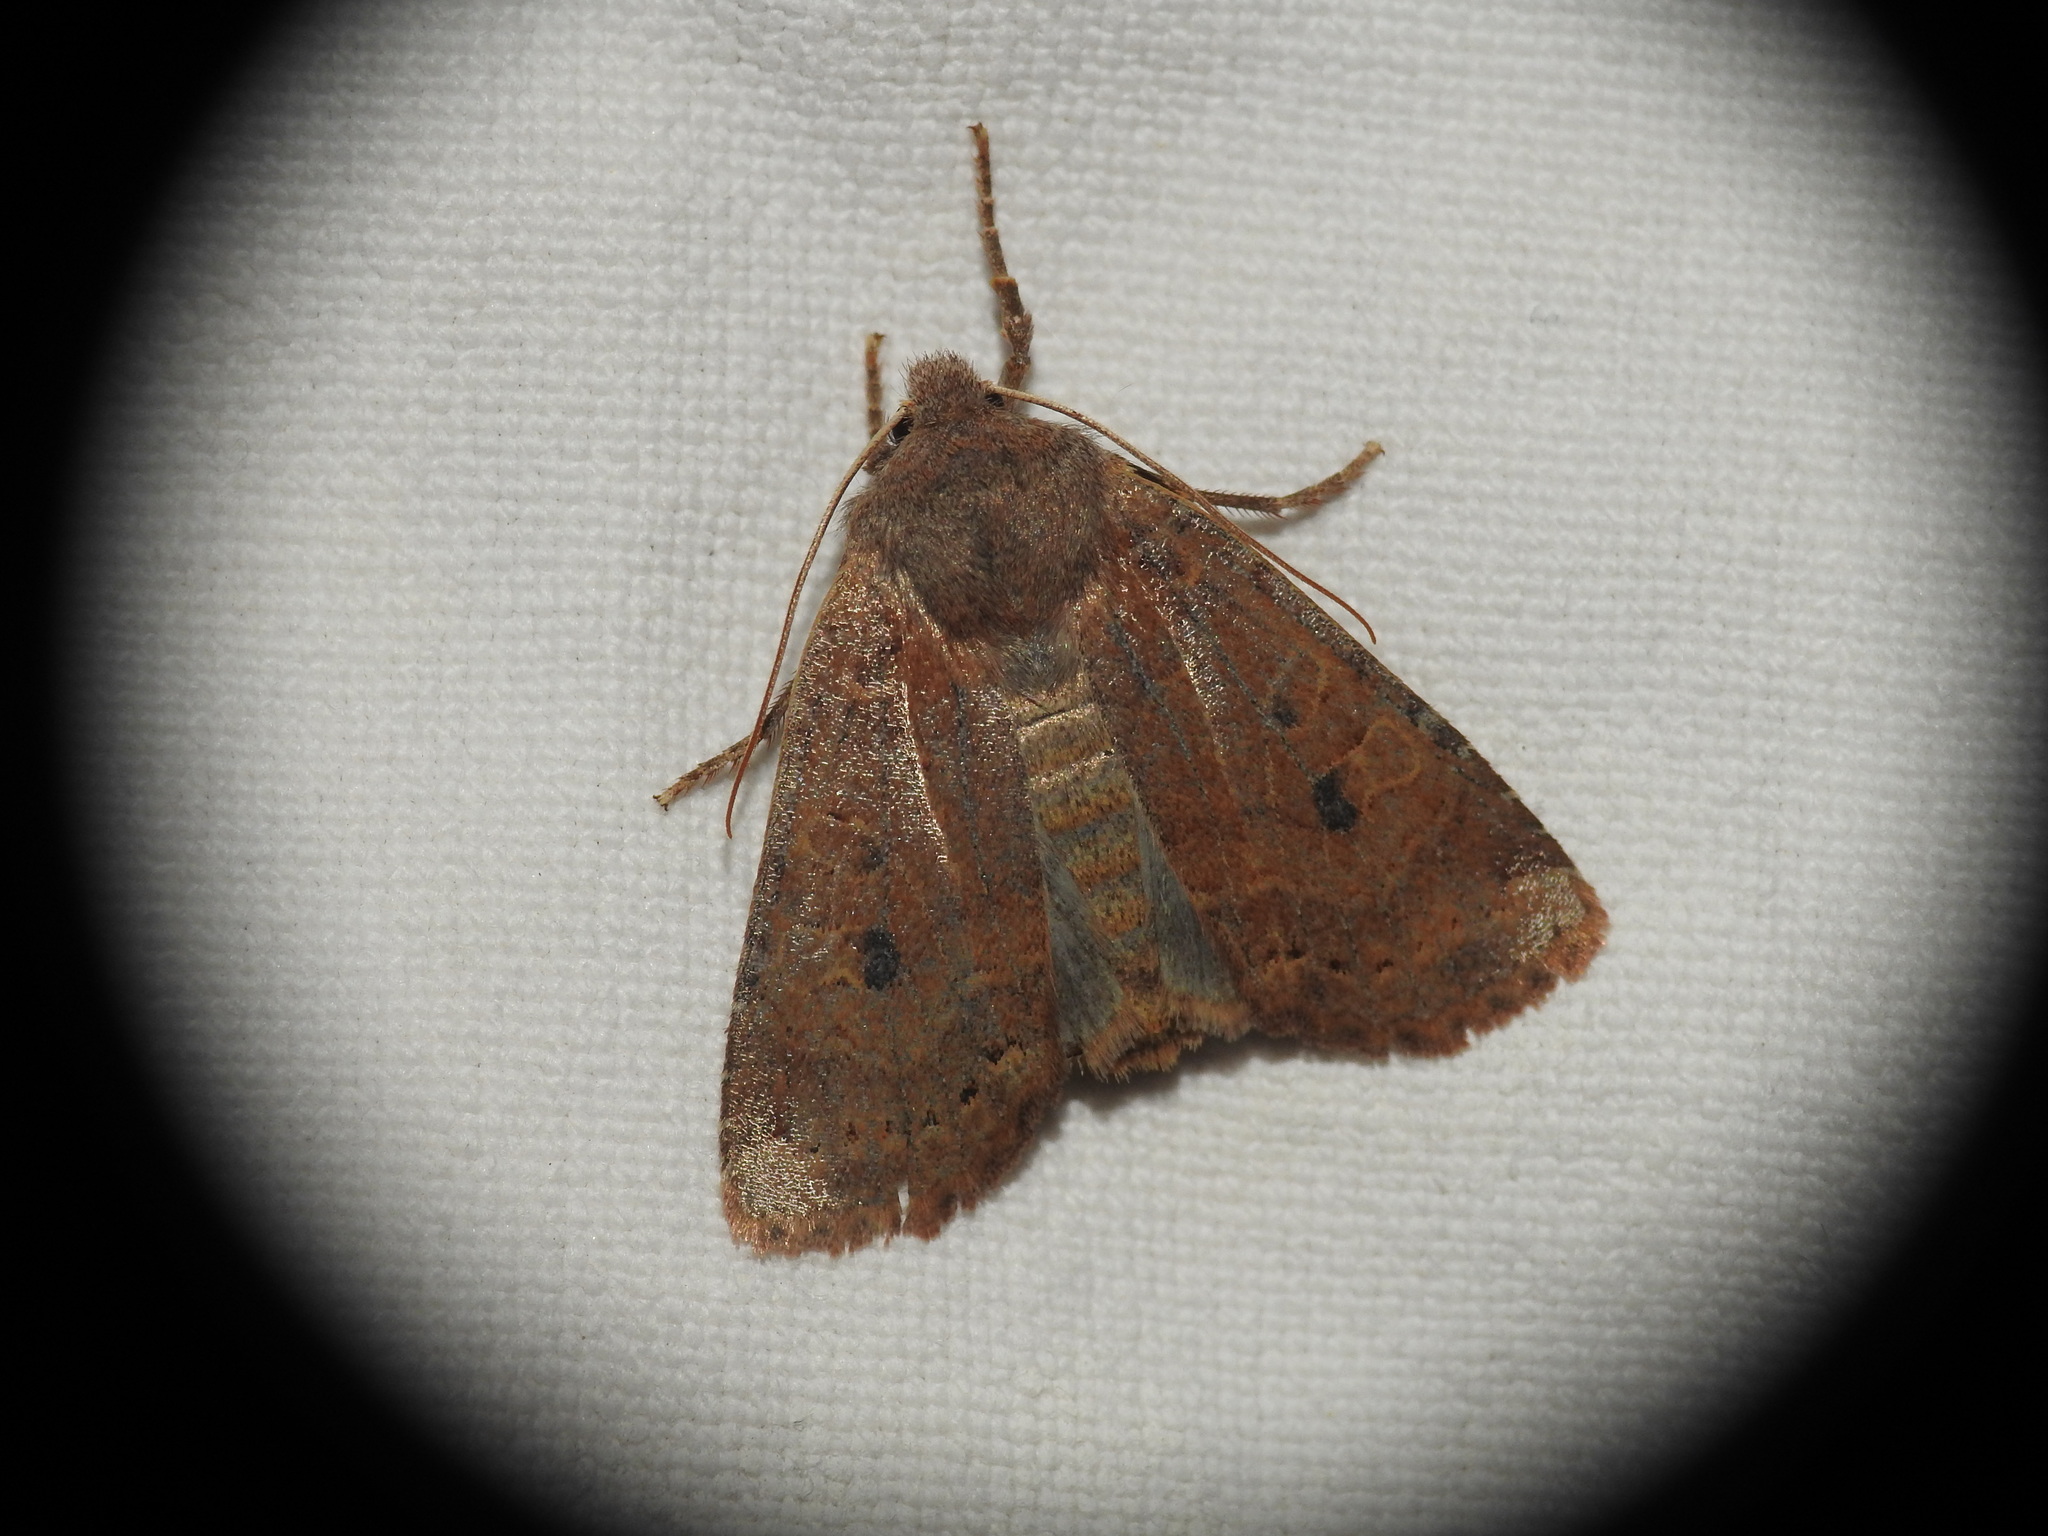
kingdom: Animalia
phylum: Arthropoda
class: Insecta
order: Lepidoptera
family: Noctuidae
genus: Conistra
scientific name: Conistra vaccinii
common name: Chestnut
